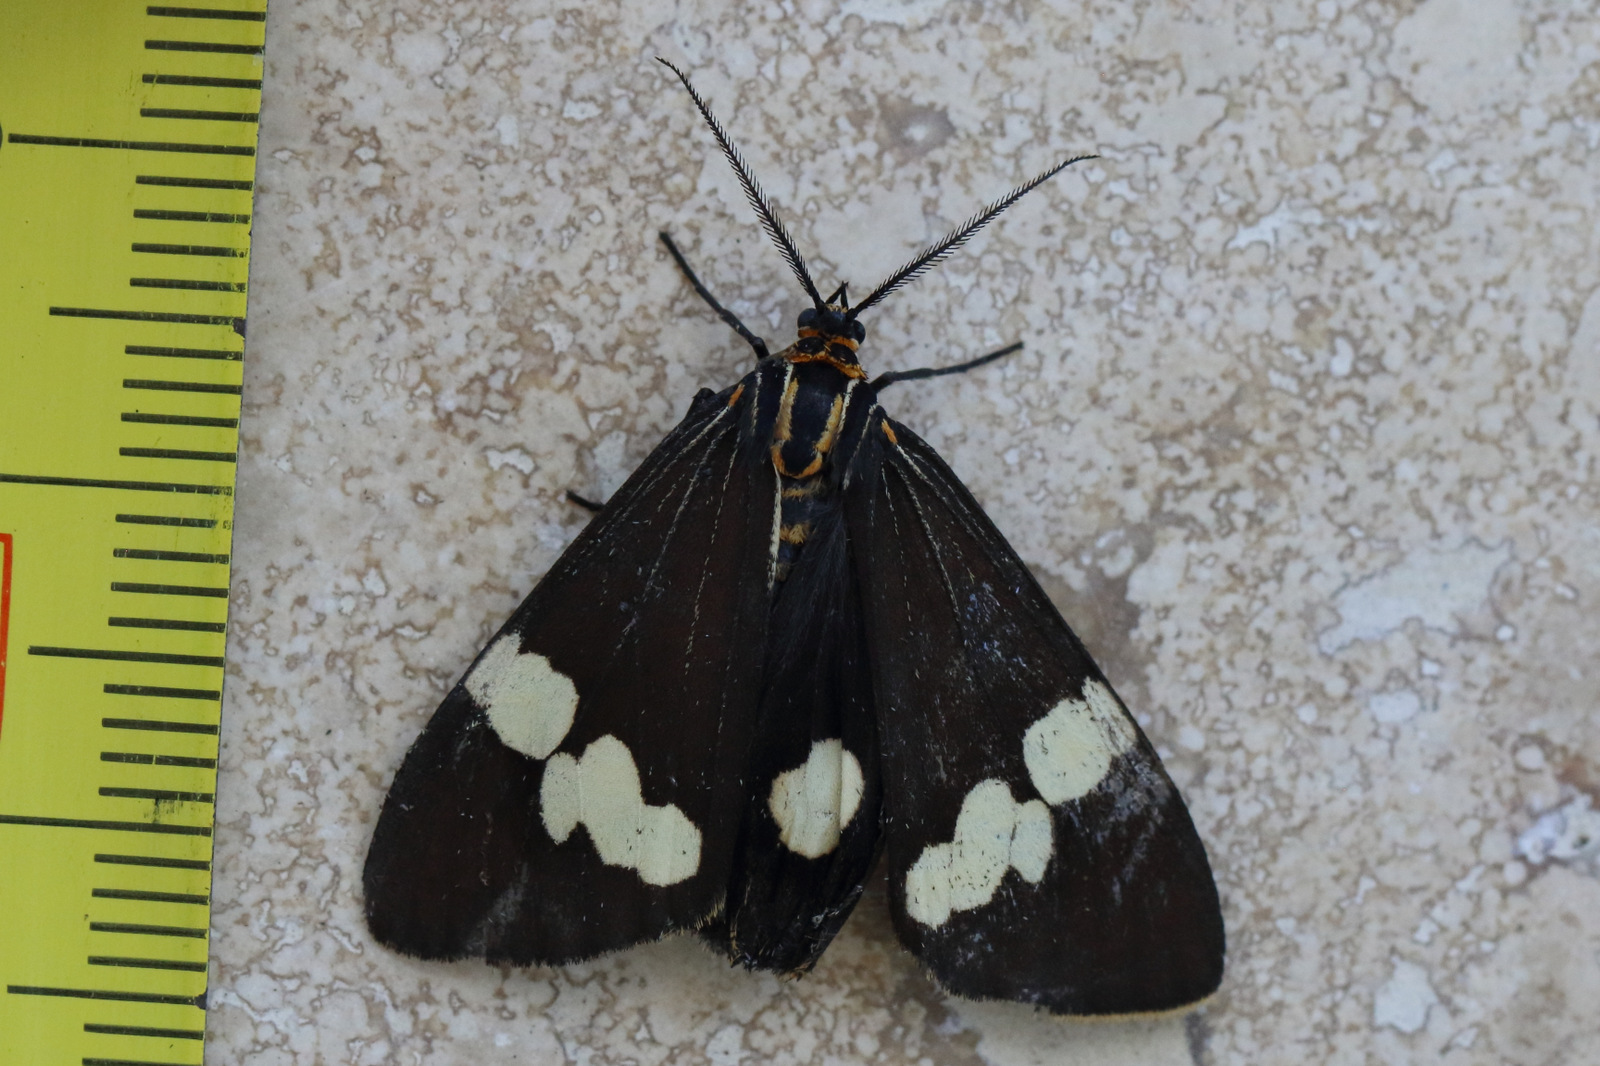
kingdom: Animalia
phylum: Arthropoda
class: Insecta
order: Lepidoptera
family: Erebidae
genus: Nyctemera
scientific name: Nyctemera amicus
